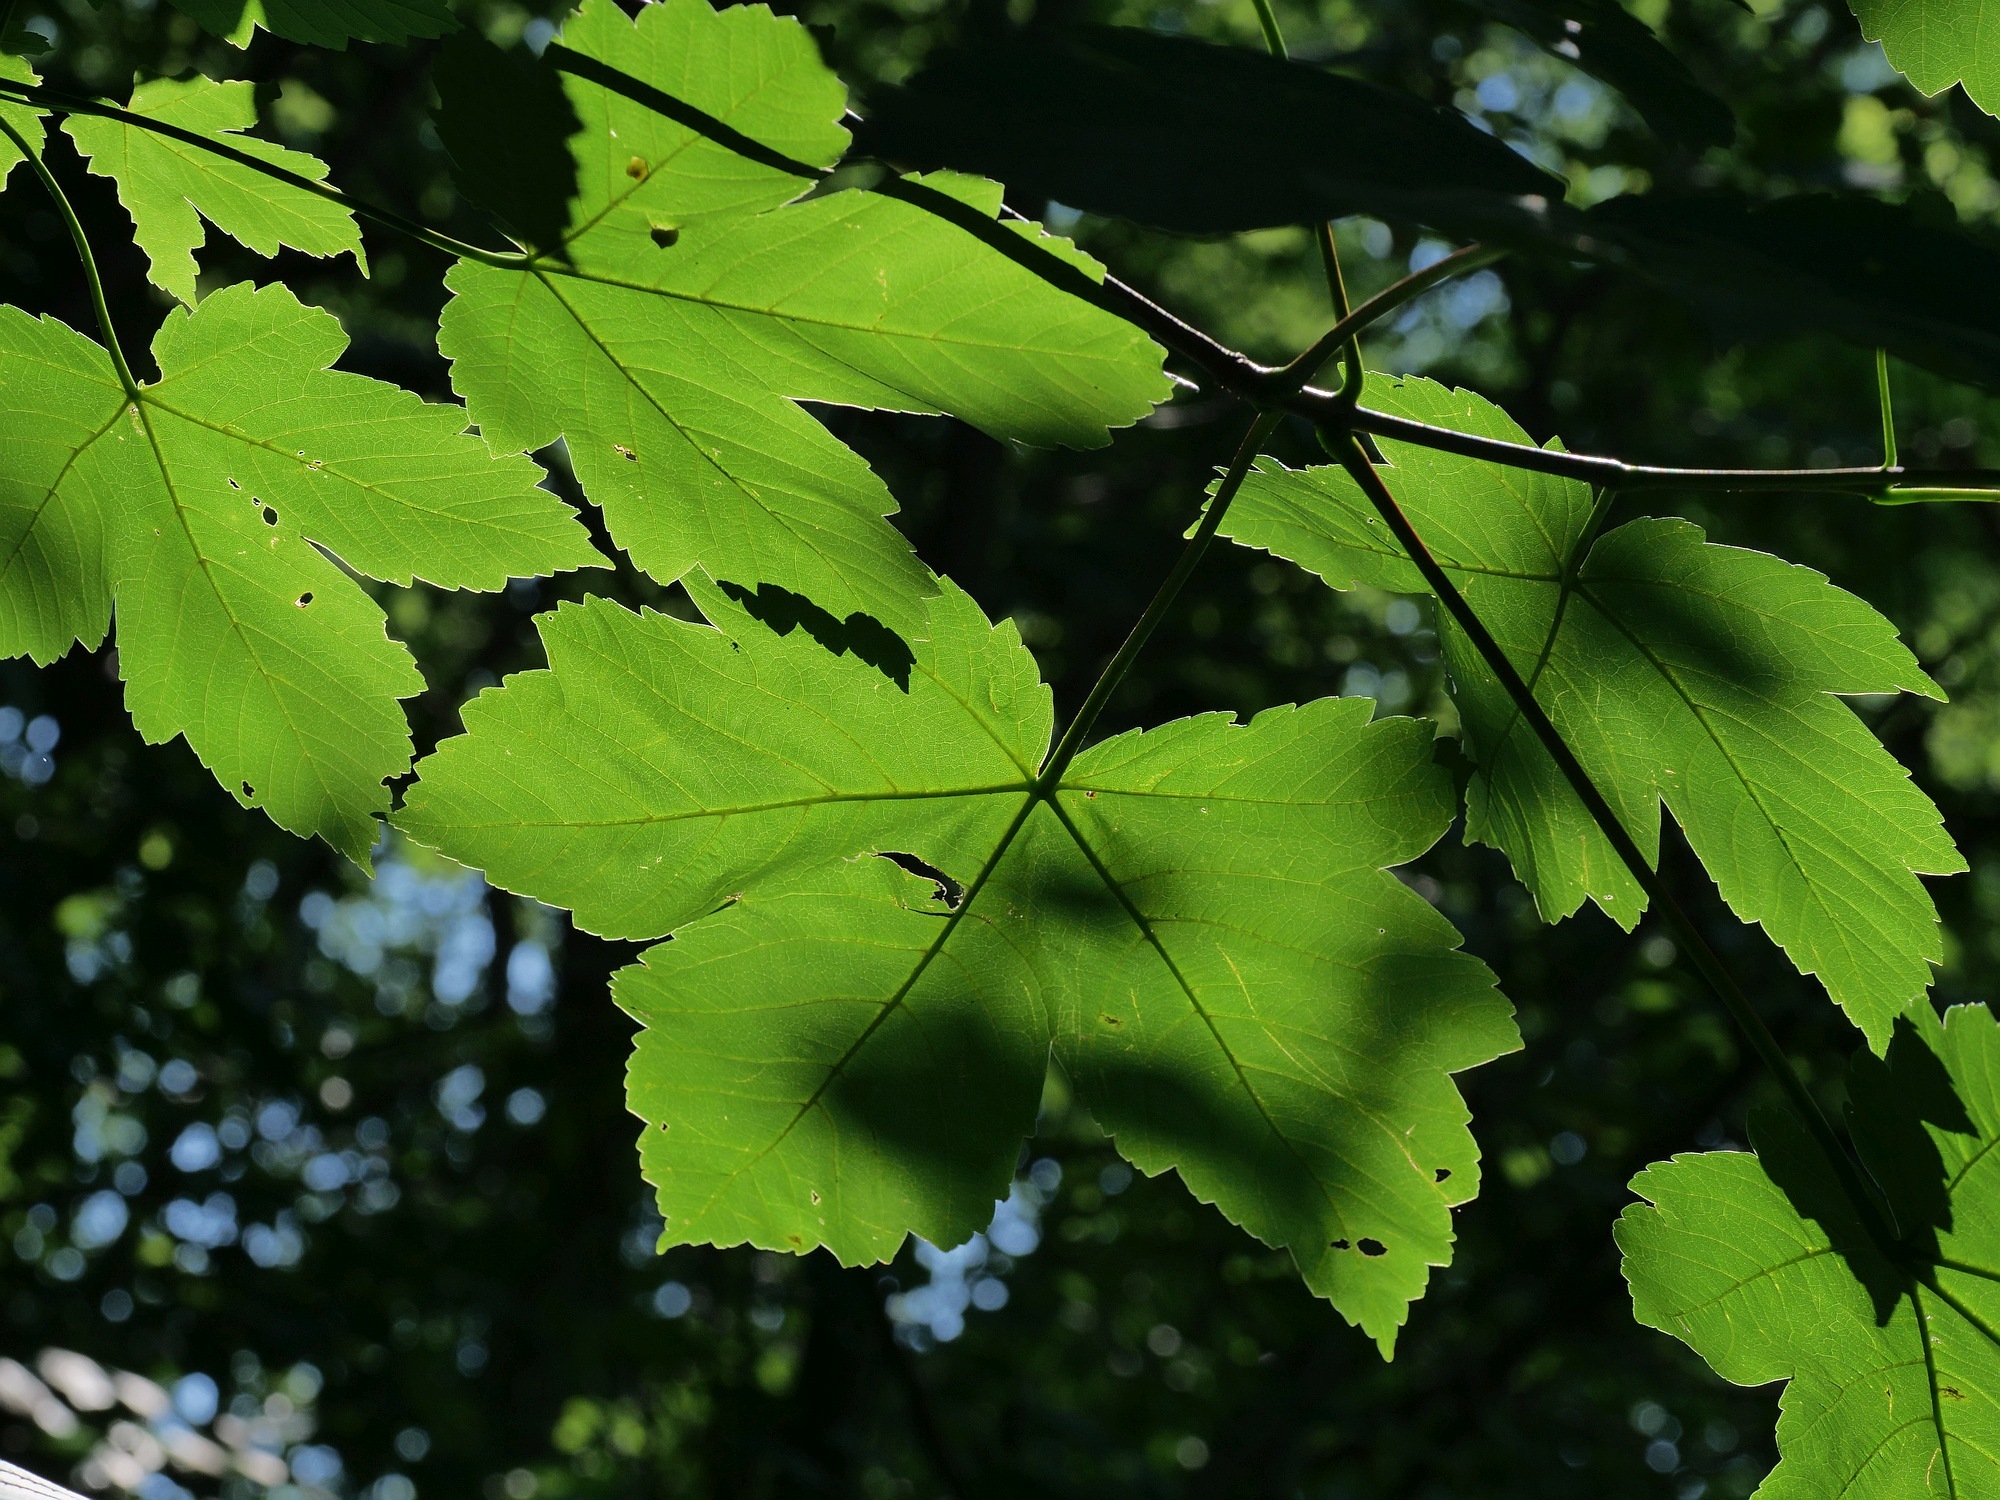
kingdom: Plantae
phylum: Tracheophyta
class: Magnoliopsida
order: Sapindales
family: Sapindaceae
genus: Acer
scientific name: Acer pseudoplatanus
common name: Sycamore
